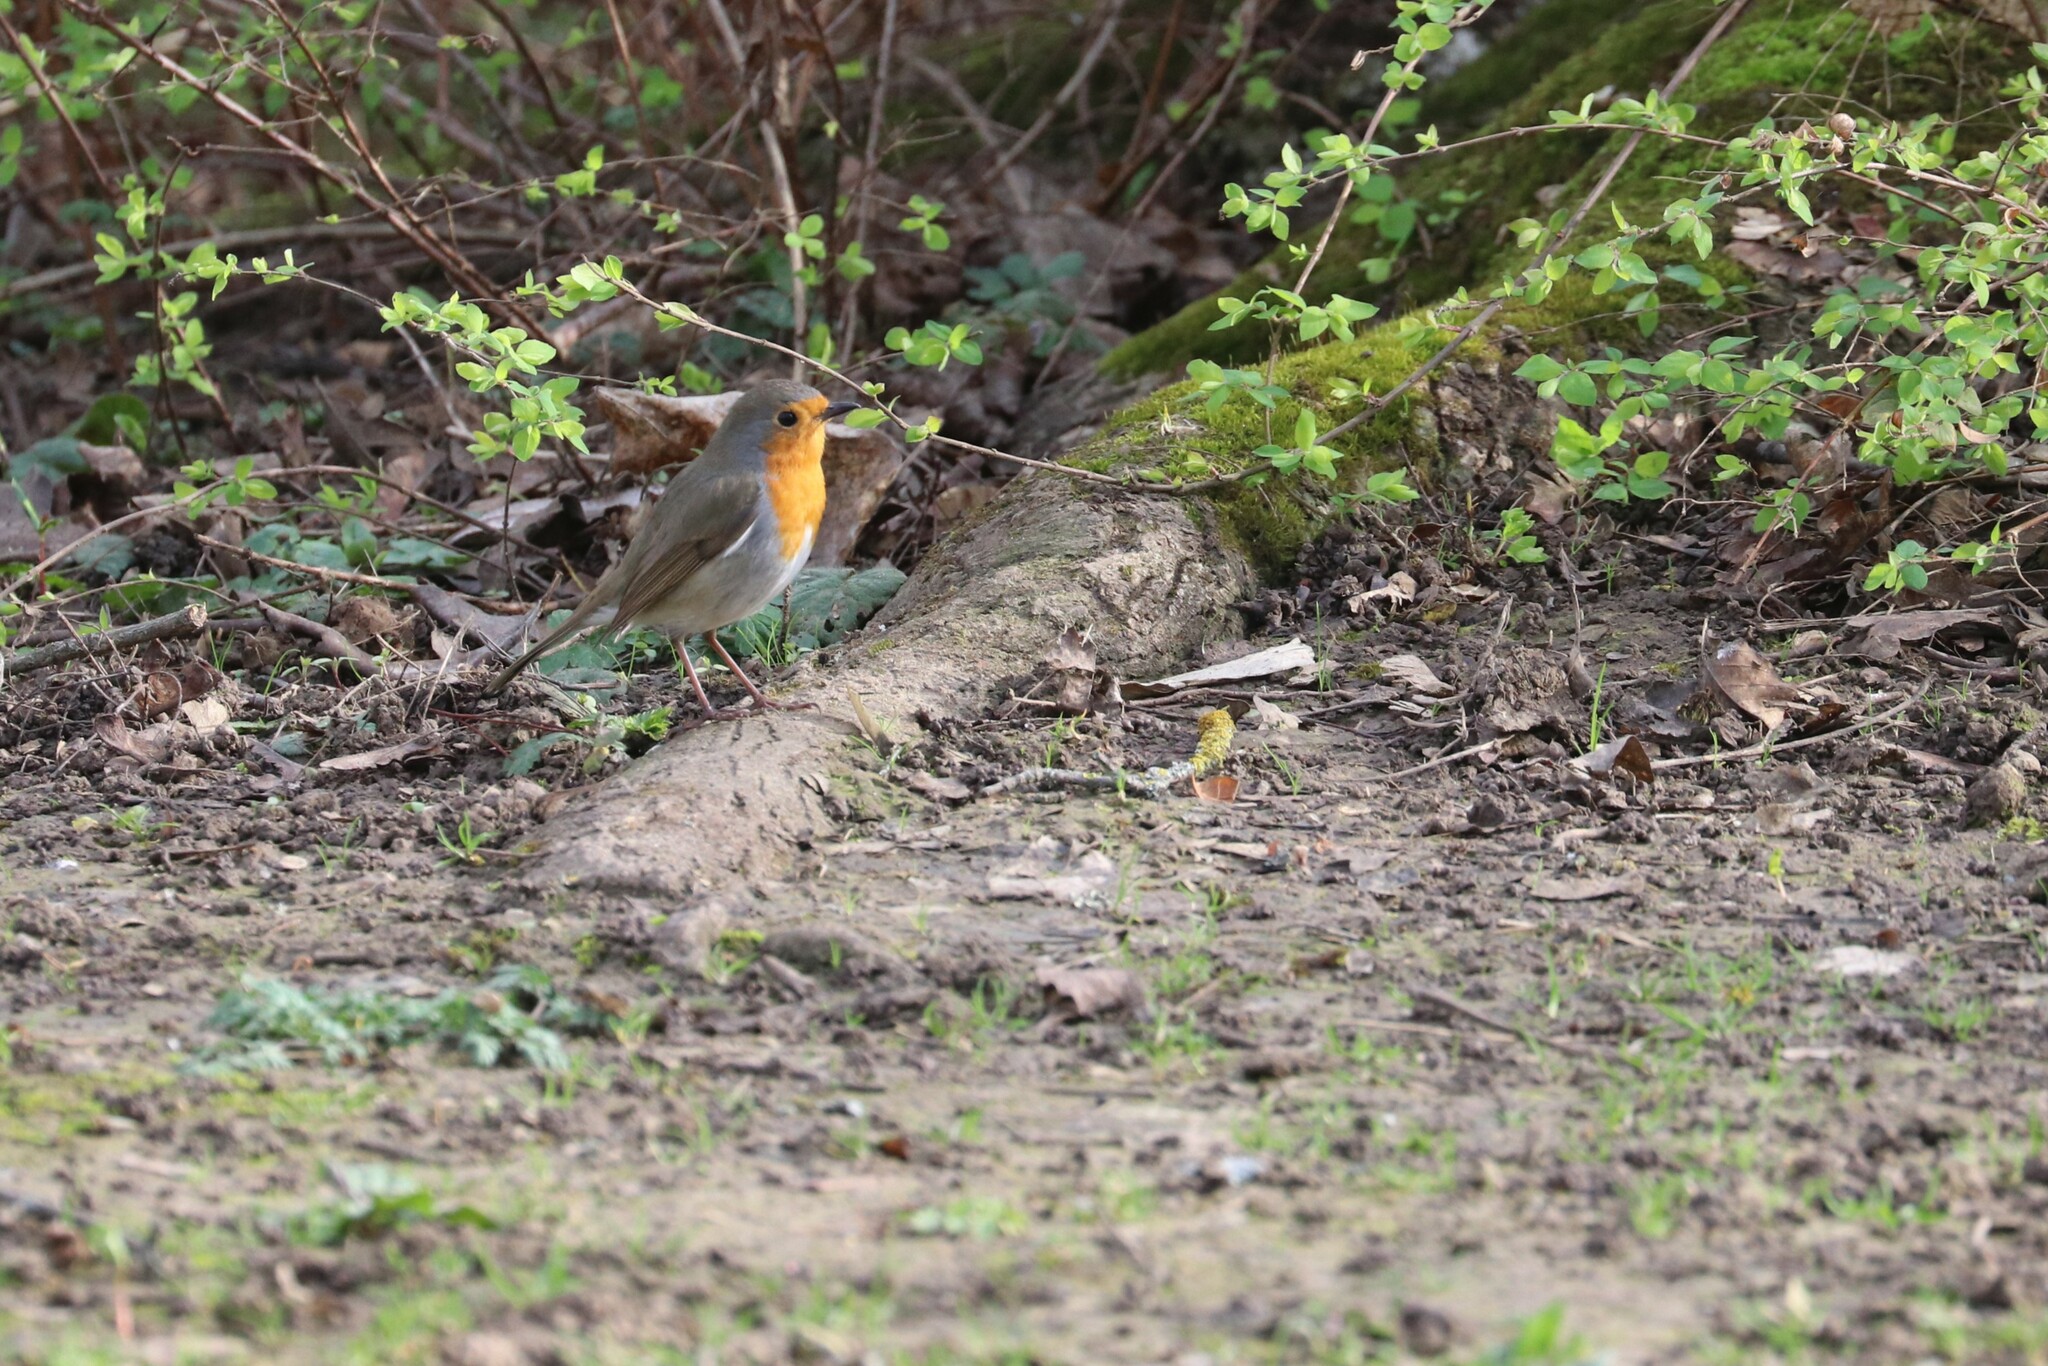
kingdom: Animalia
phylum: Chordata
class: Aves
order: Passeriformes
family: Muscicapidae
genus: Erithacus
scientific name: Erithacus rubecula
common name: European robin
